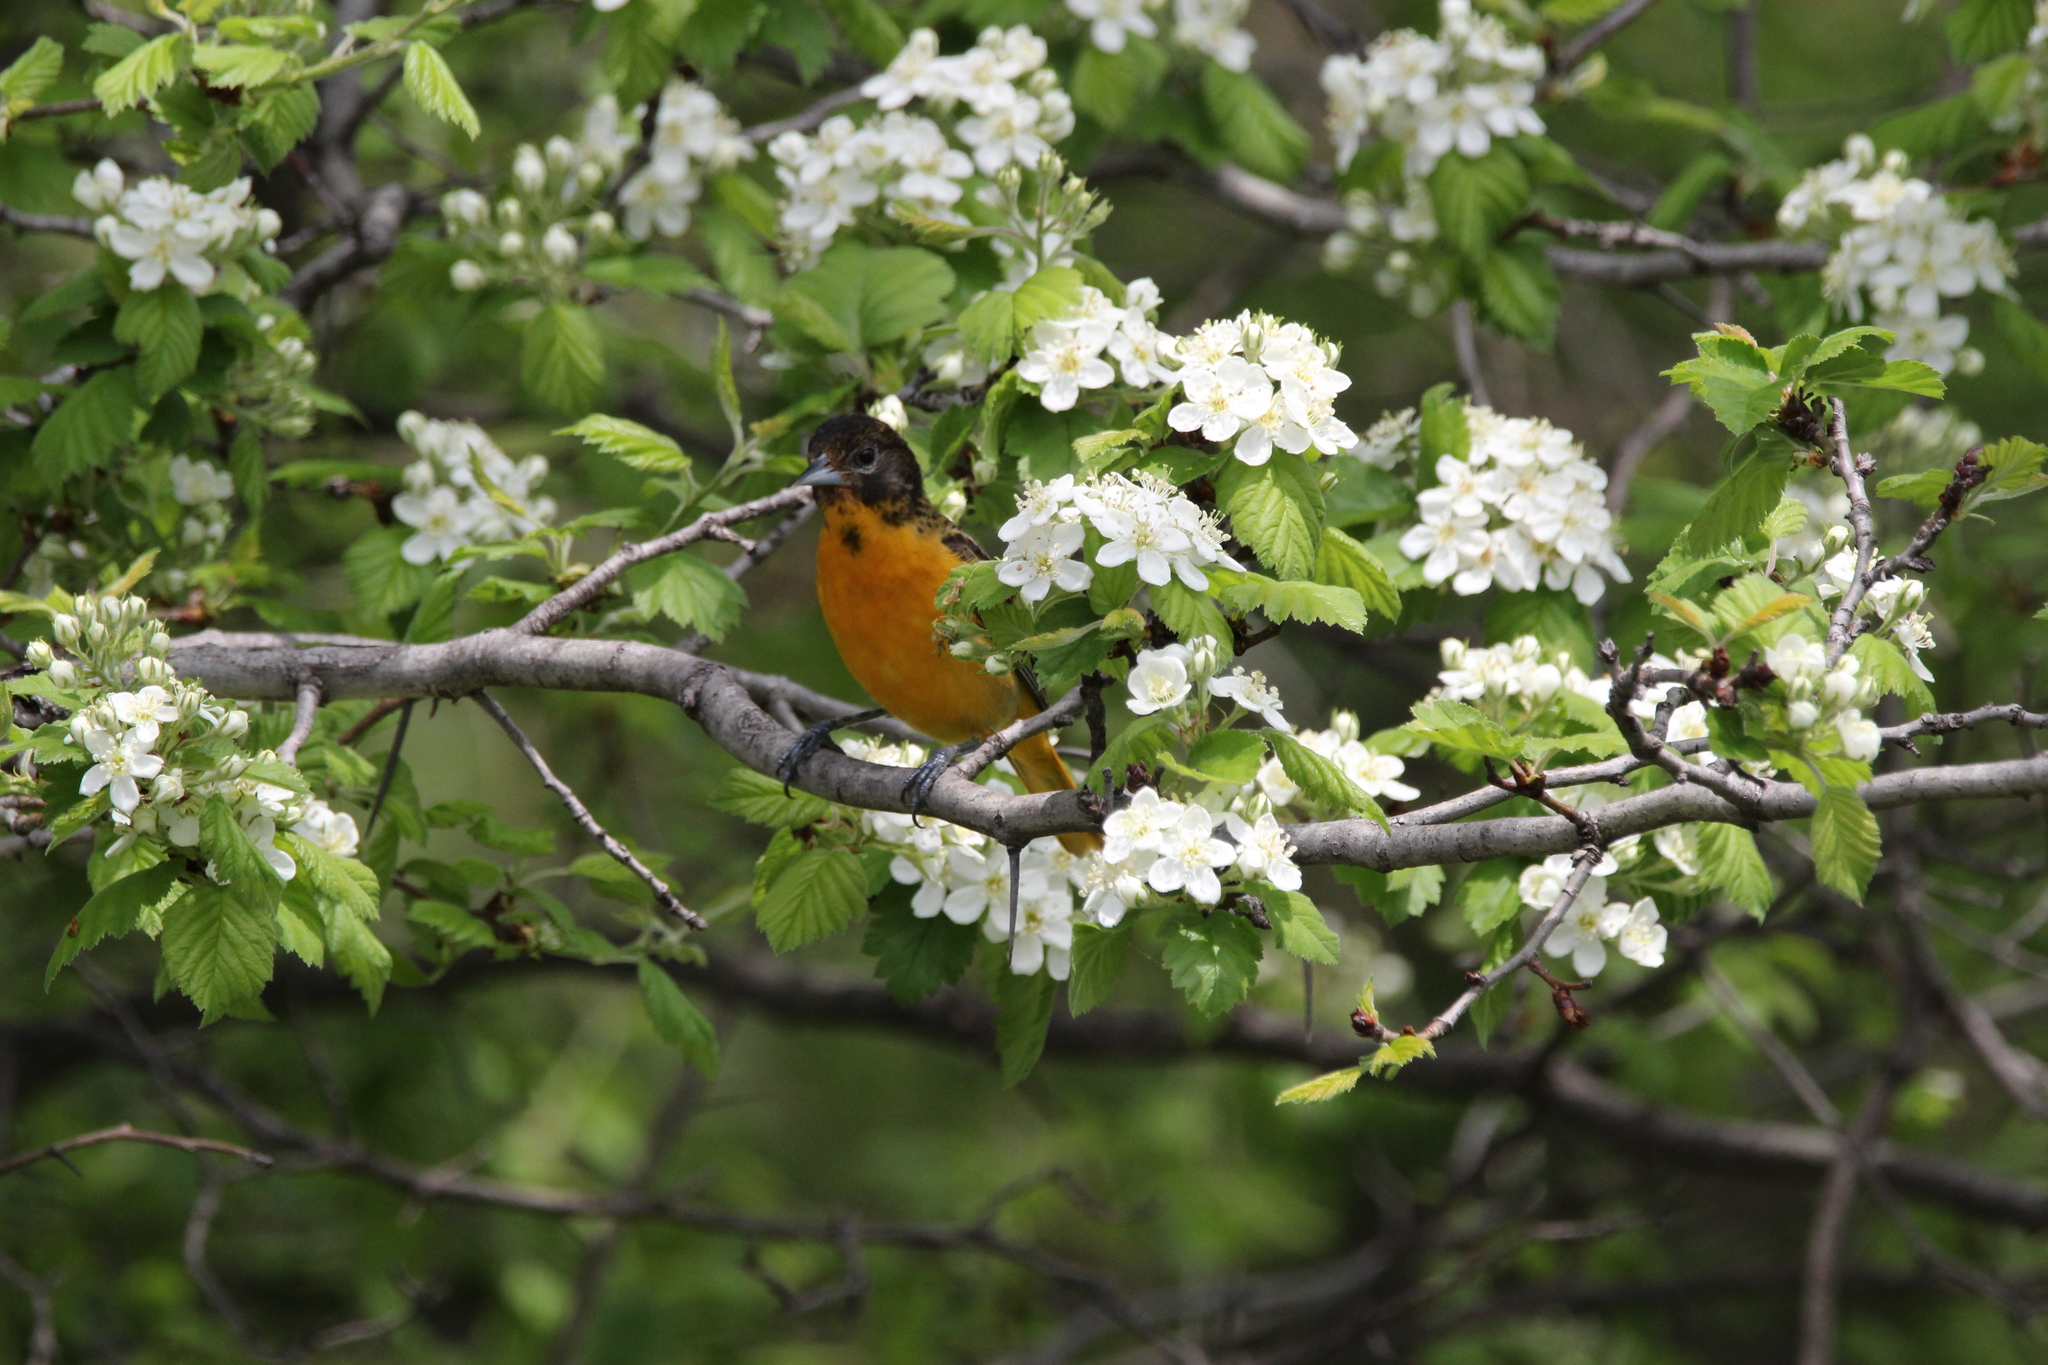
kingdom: Animalia
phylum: Chordata
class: Aves
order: Passeriformes
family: Icteridae
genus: Icterus
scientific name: Icterus galbula
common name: Baltimore oriole
